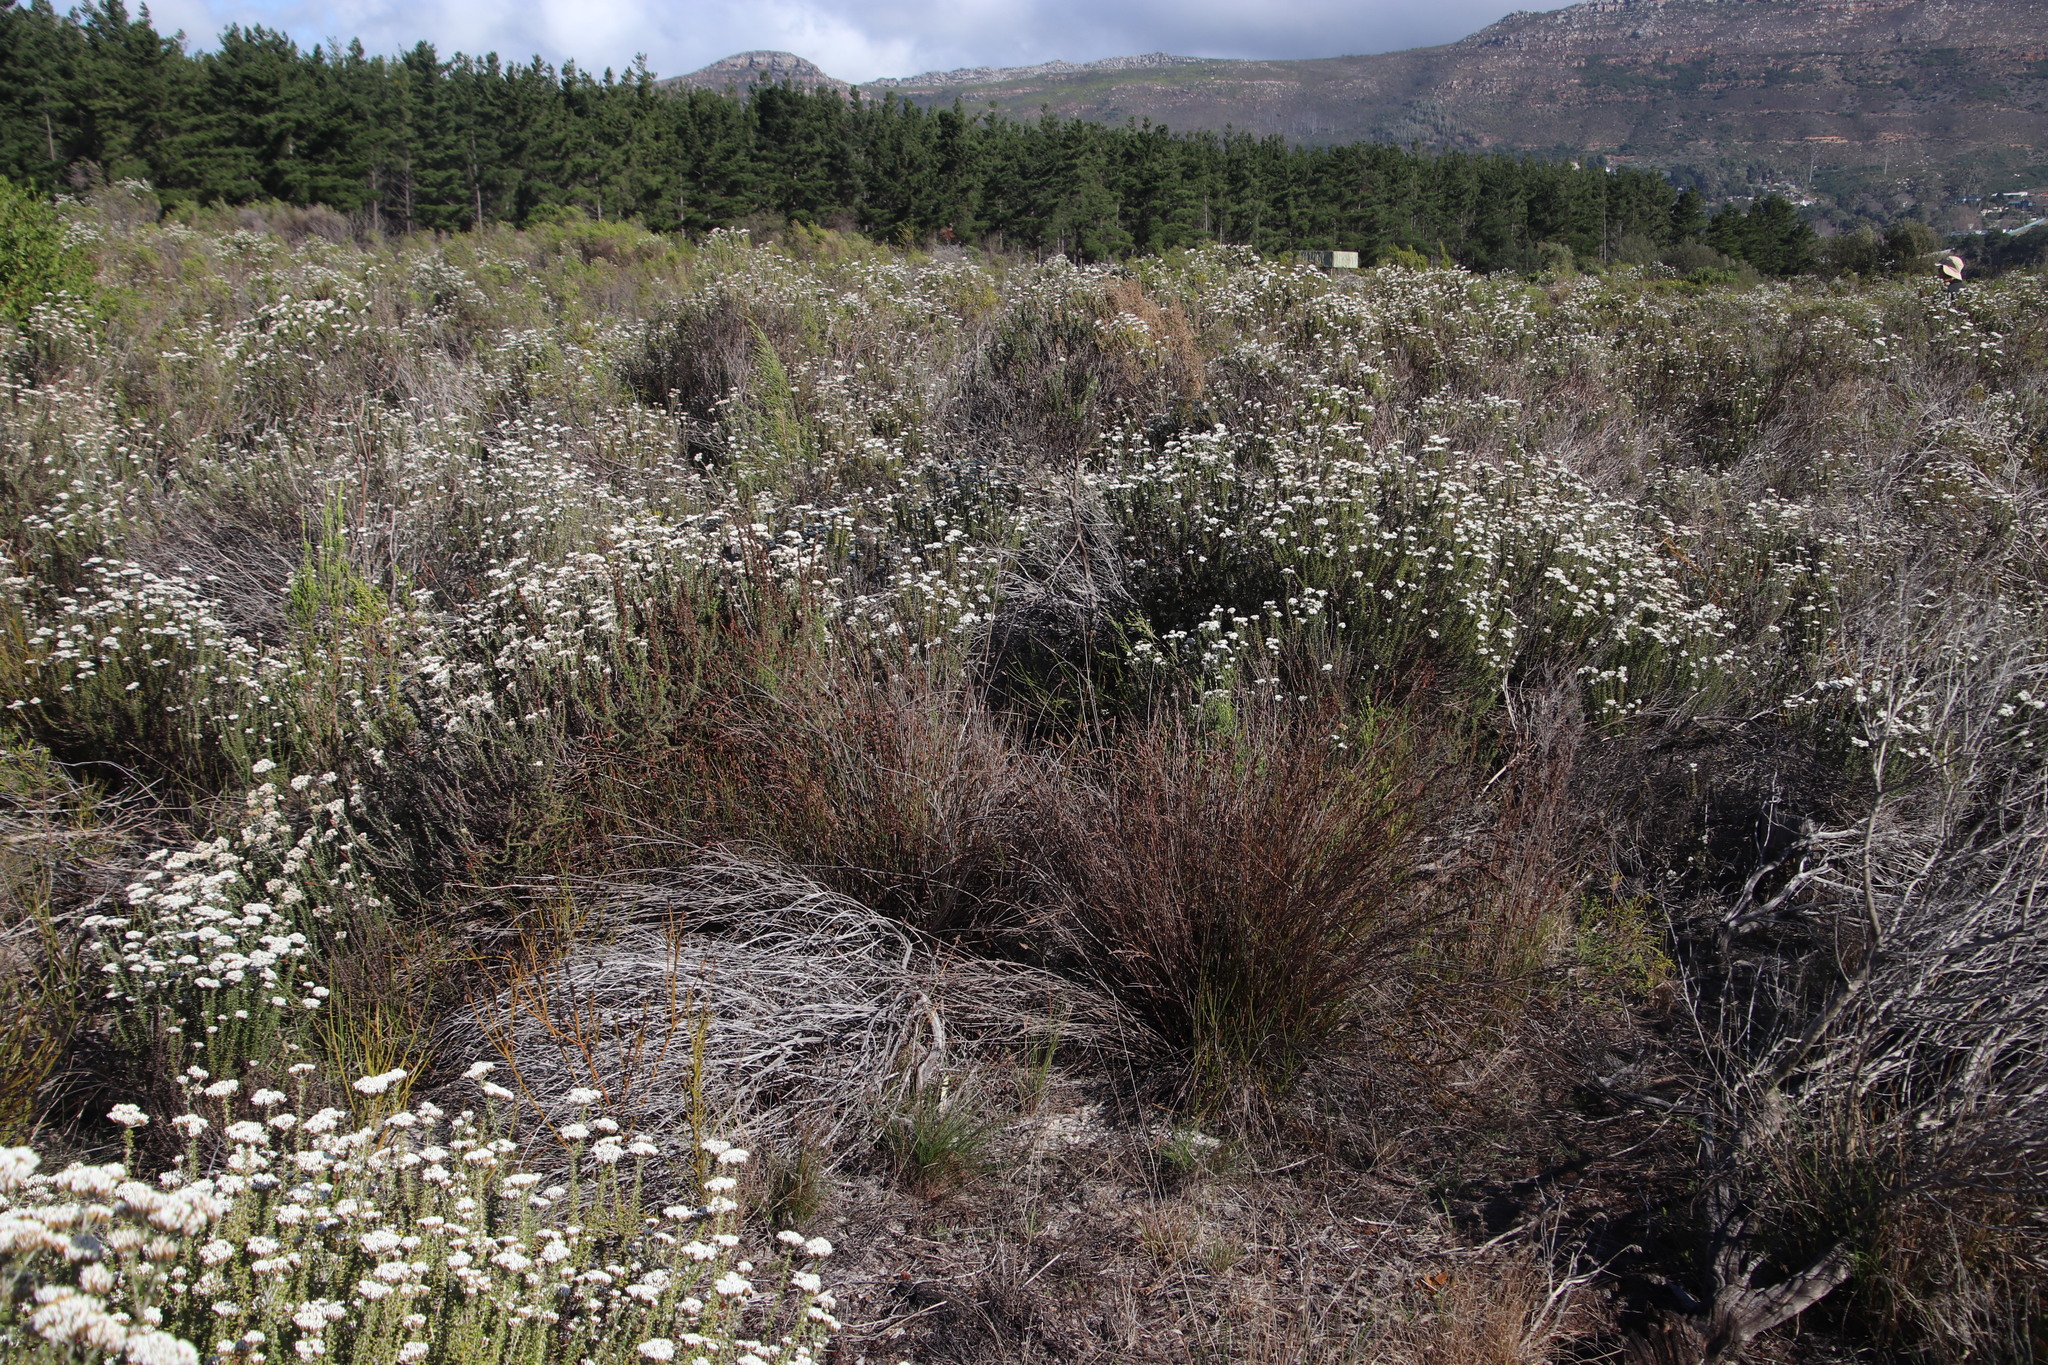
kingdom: Plantae
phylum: Tracheophyta
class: Liliopsida
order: Poales
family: Restionaceae
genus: Restio
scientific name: Restio bifurcus
